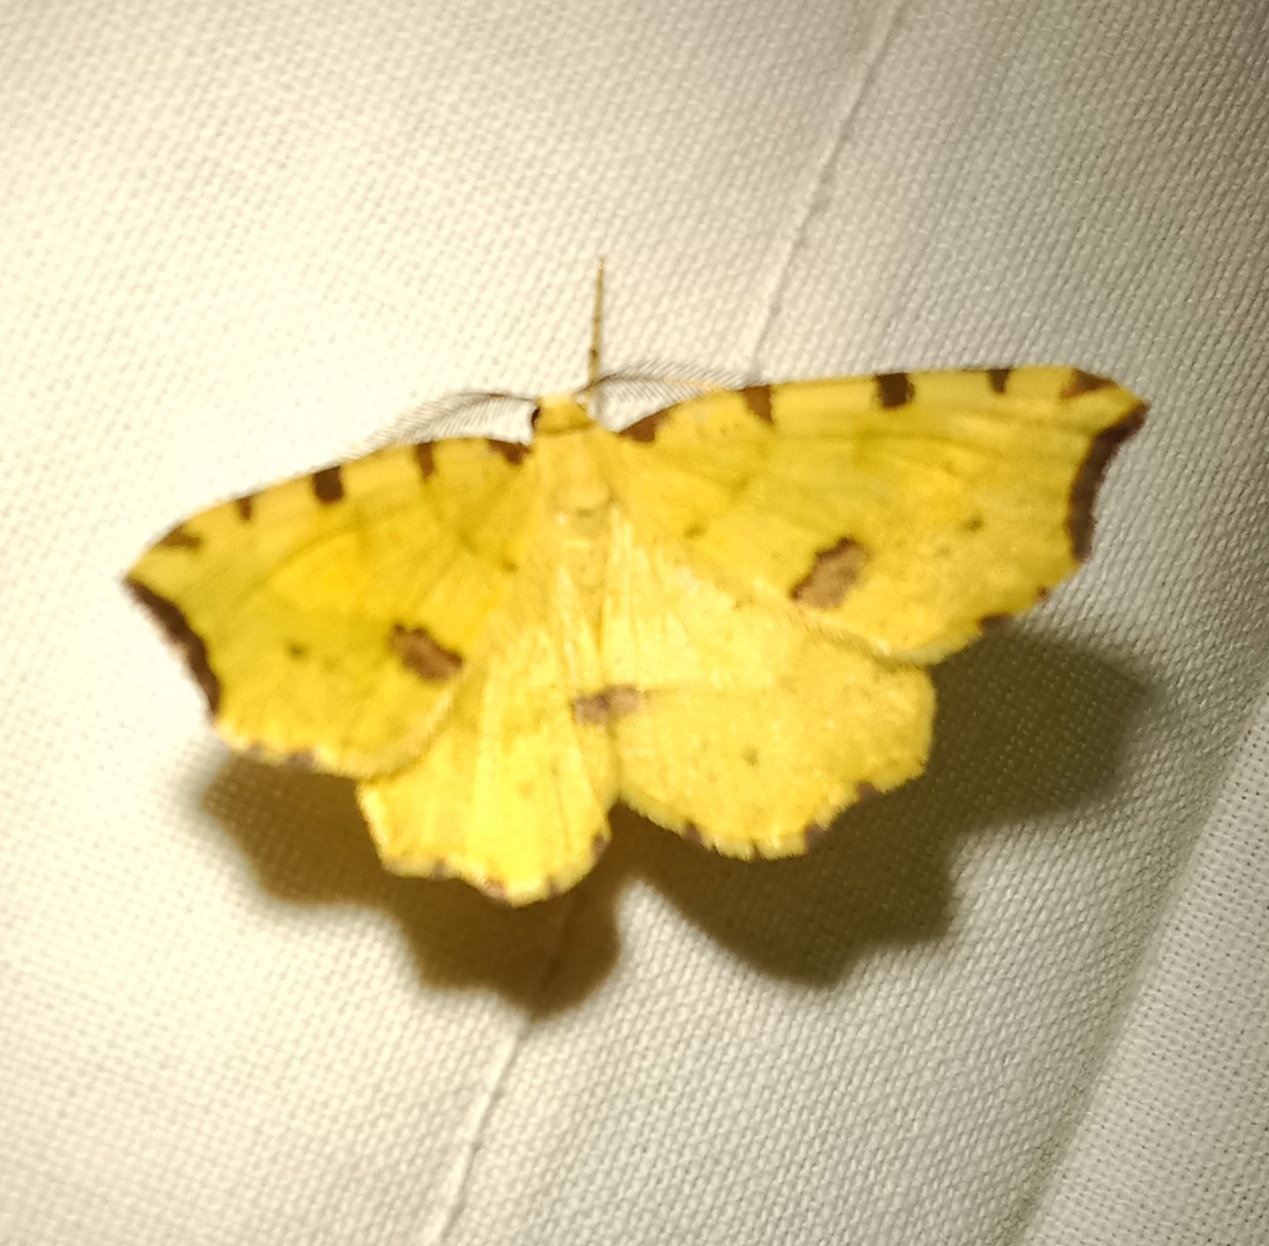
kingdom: Animalia
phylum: Arthropoda
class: Insecta
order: Lepidoptera
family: Geometridae
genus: Therapis
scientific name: Therapis flavicaria
